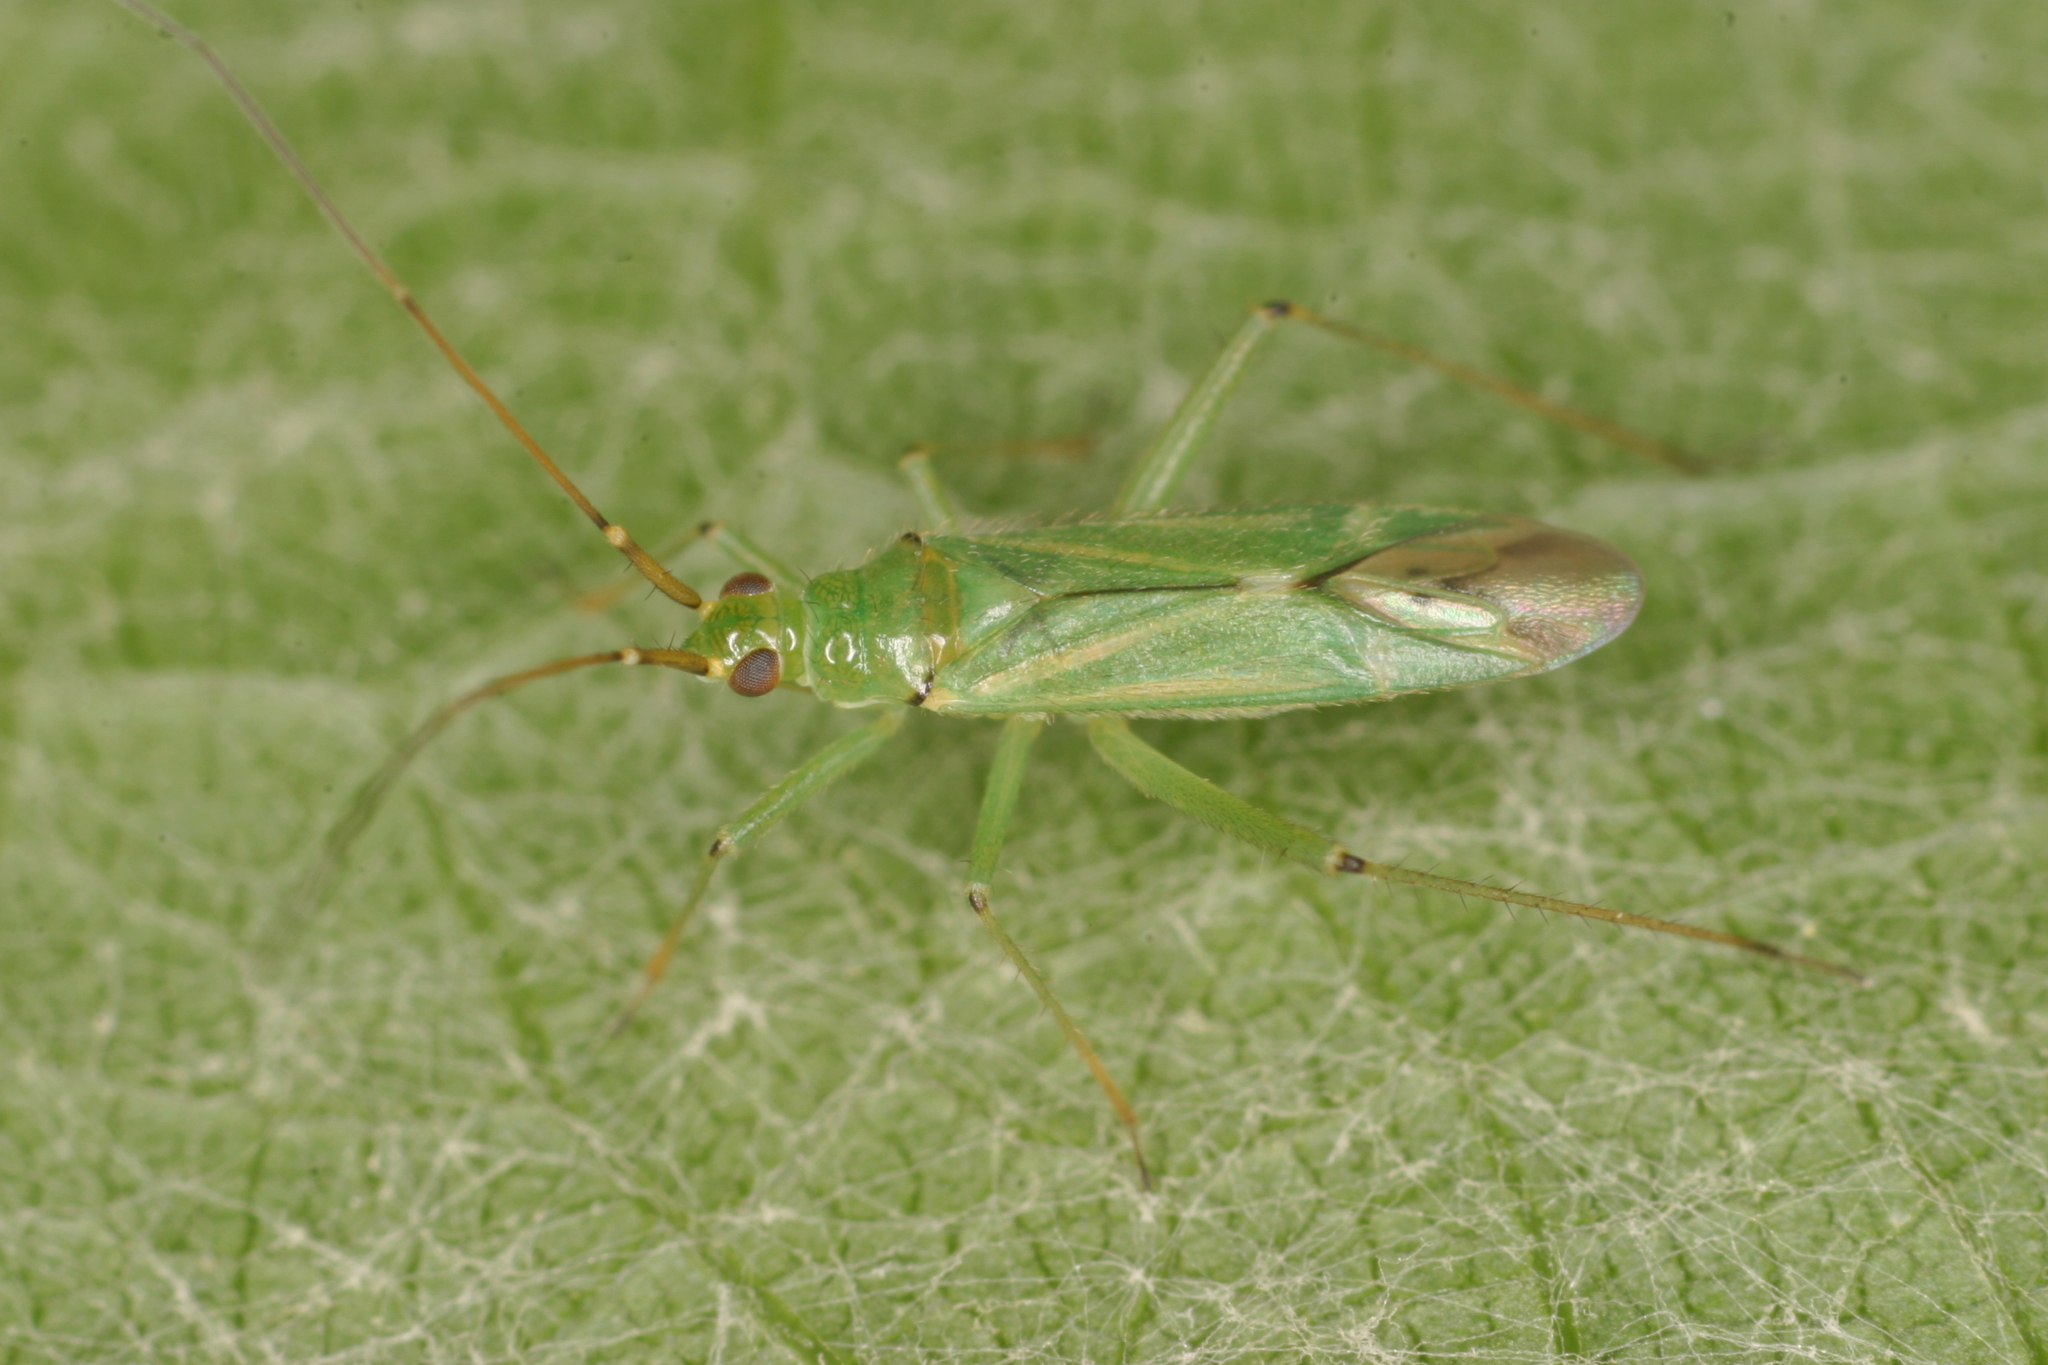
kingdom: Animalia
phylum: Arthropoda
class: Insecta
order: Hemiptera
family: Miridae
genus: Blepharidopterus
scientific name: Blepharidopterus angulatus
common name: Plant bug
